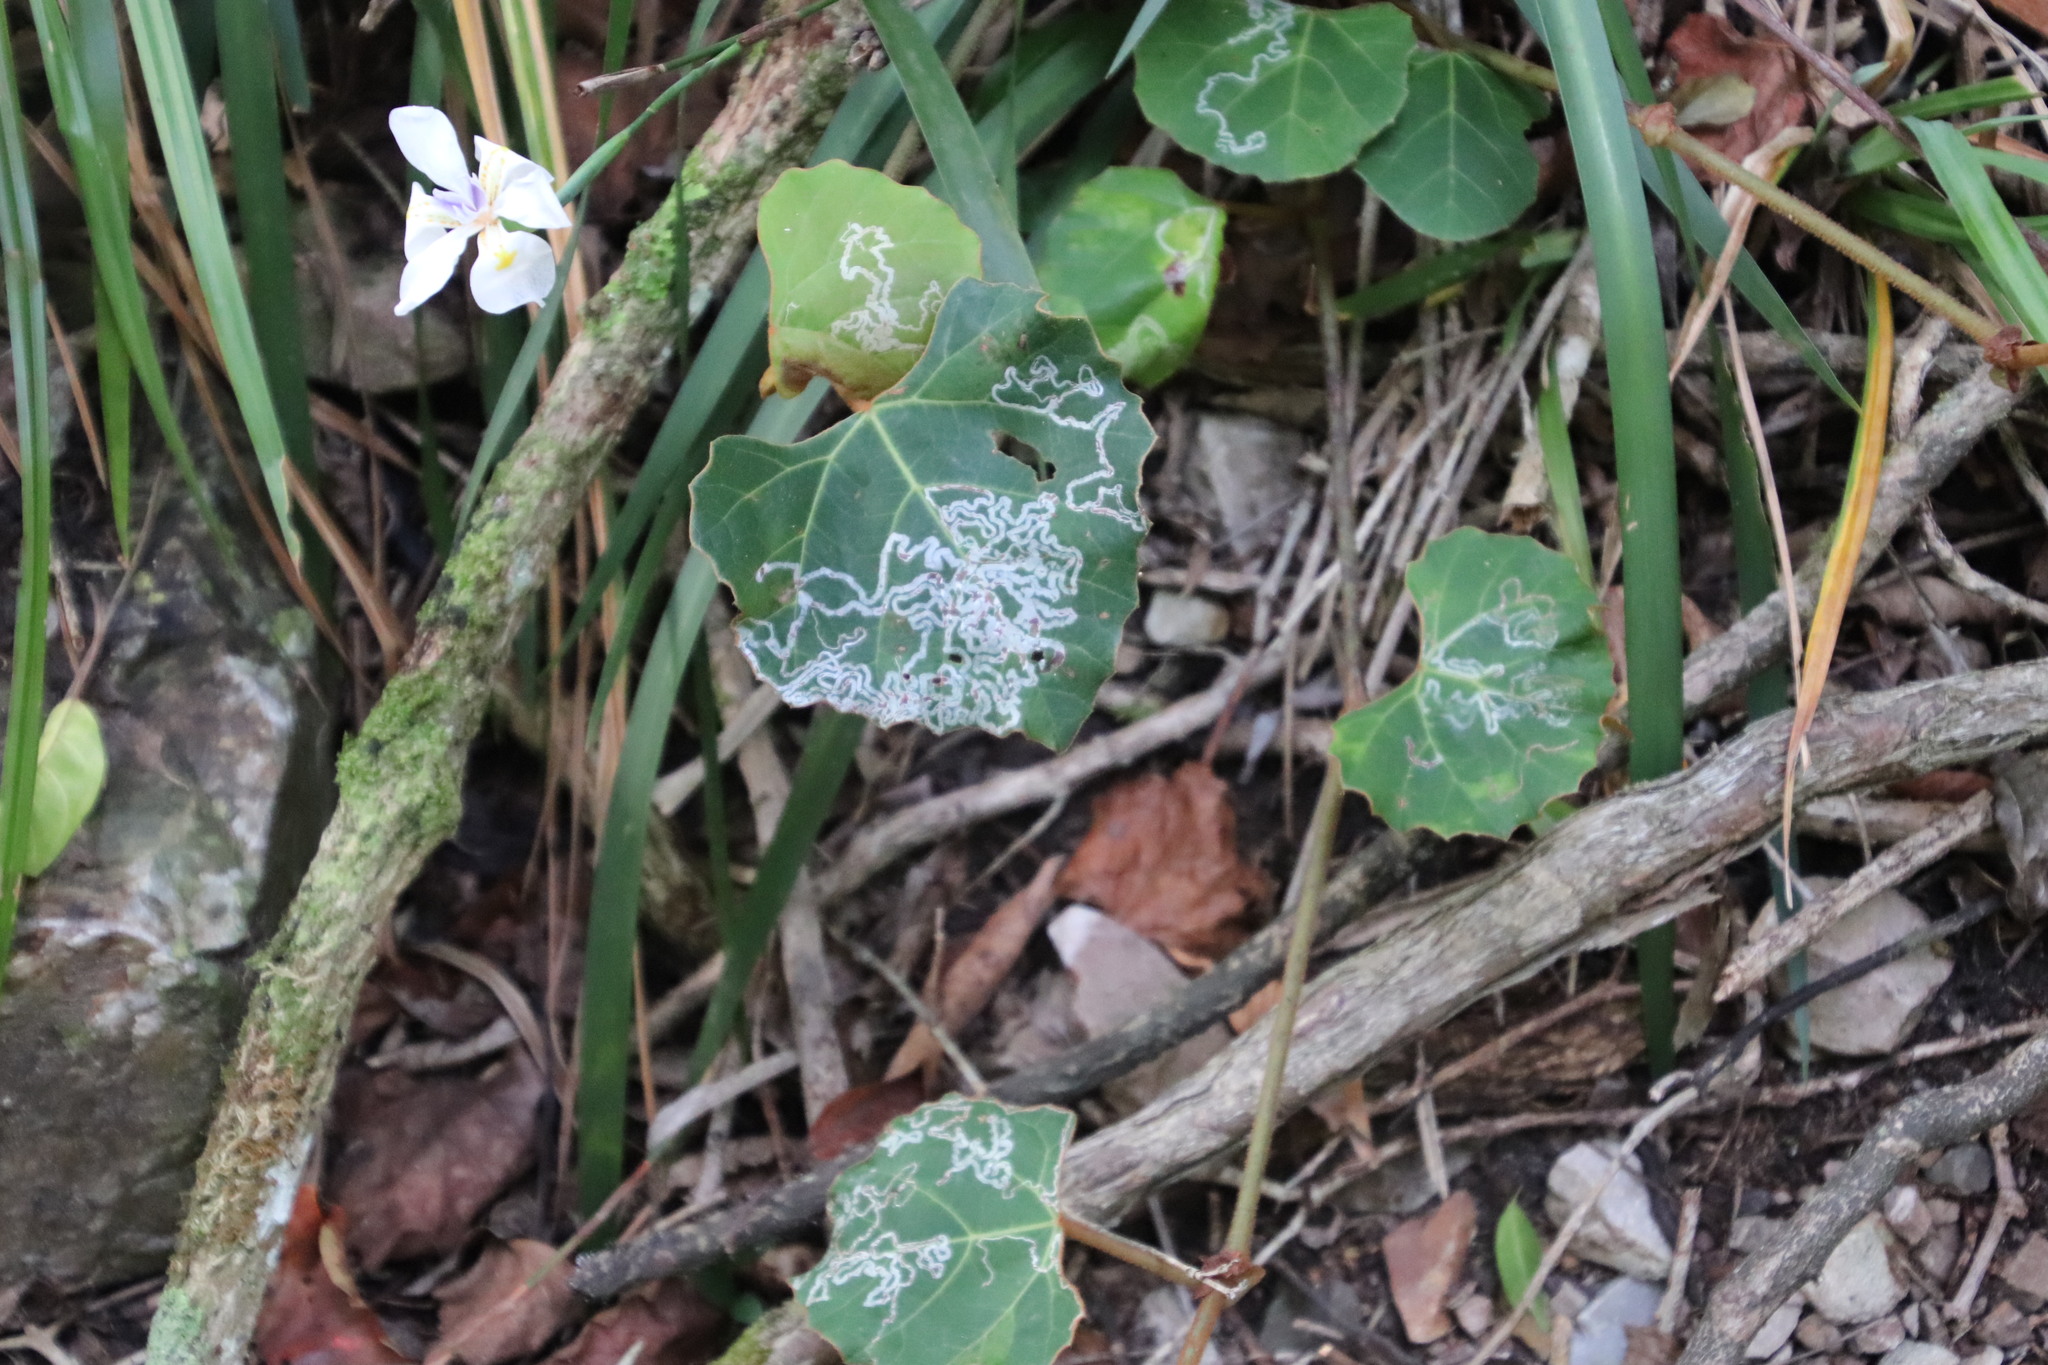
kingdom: Plantae
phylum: Tracheophyta
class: Magnoliopsida
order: Vitales
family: Vitaceae
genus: Rhoicissus
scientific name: Rhoicissus tomentosa
